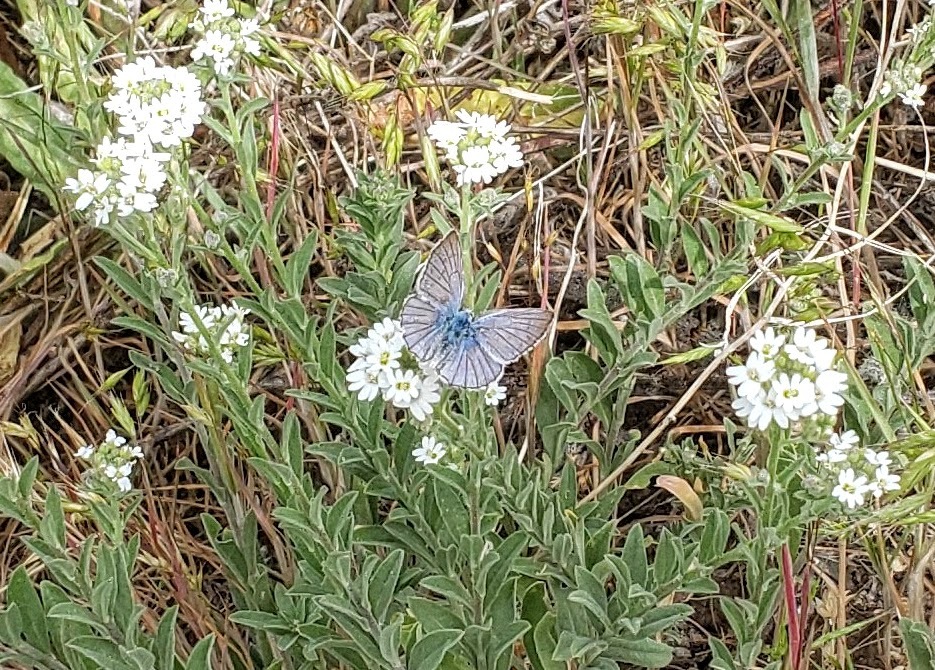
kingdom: Animalia
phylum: Arthropoda
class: Insecta
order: Lepidoptera
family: Lycaenidae
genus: Tharsalea
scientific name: Tharsalea heteronea
